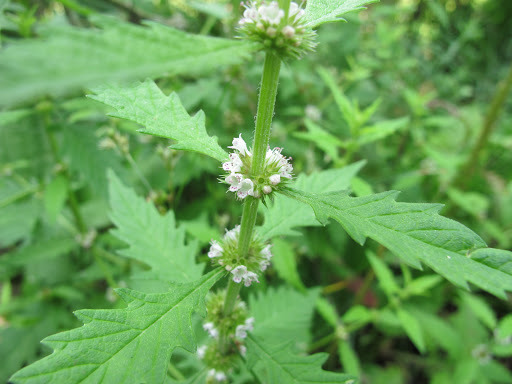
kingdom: Plantae
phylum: Tracheophyta
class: Magnoliopsida
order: Lamiales
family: Lamiaceae
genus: Lycopus
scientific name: Lycopus europaeus
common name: European bugleweed
